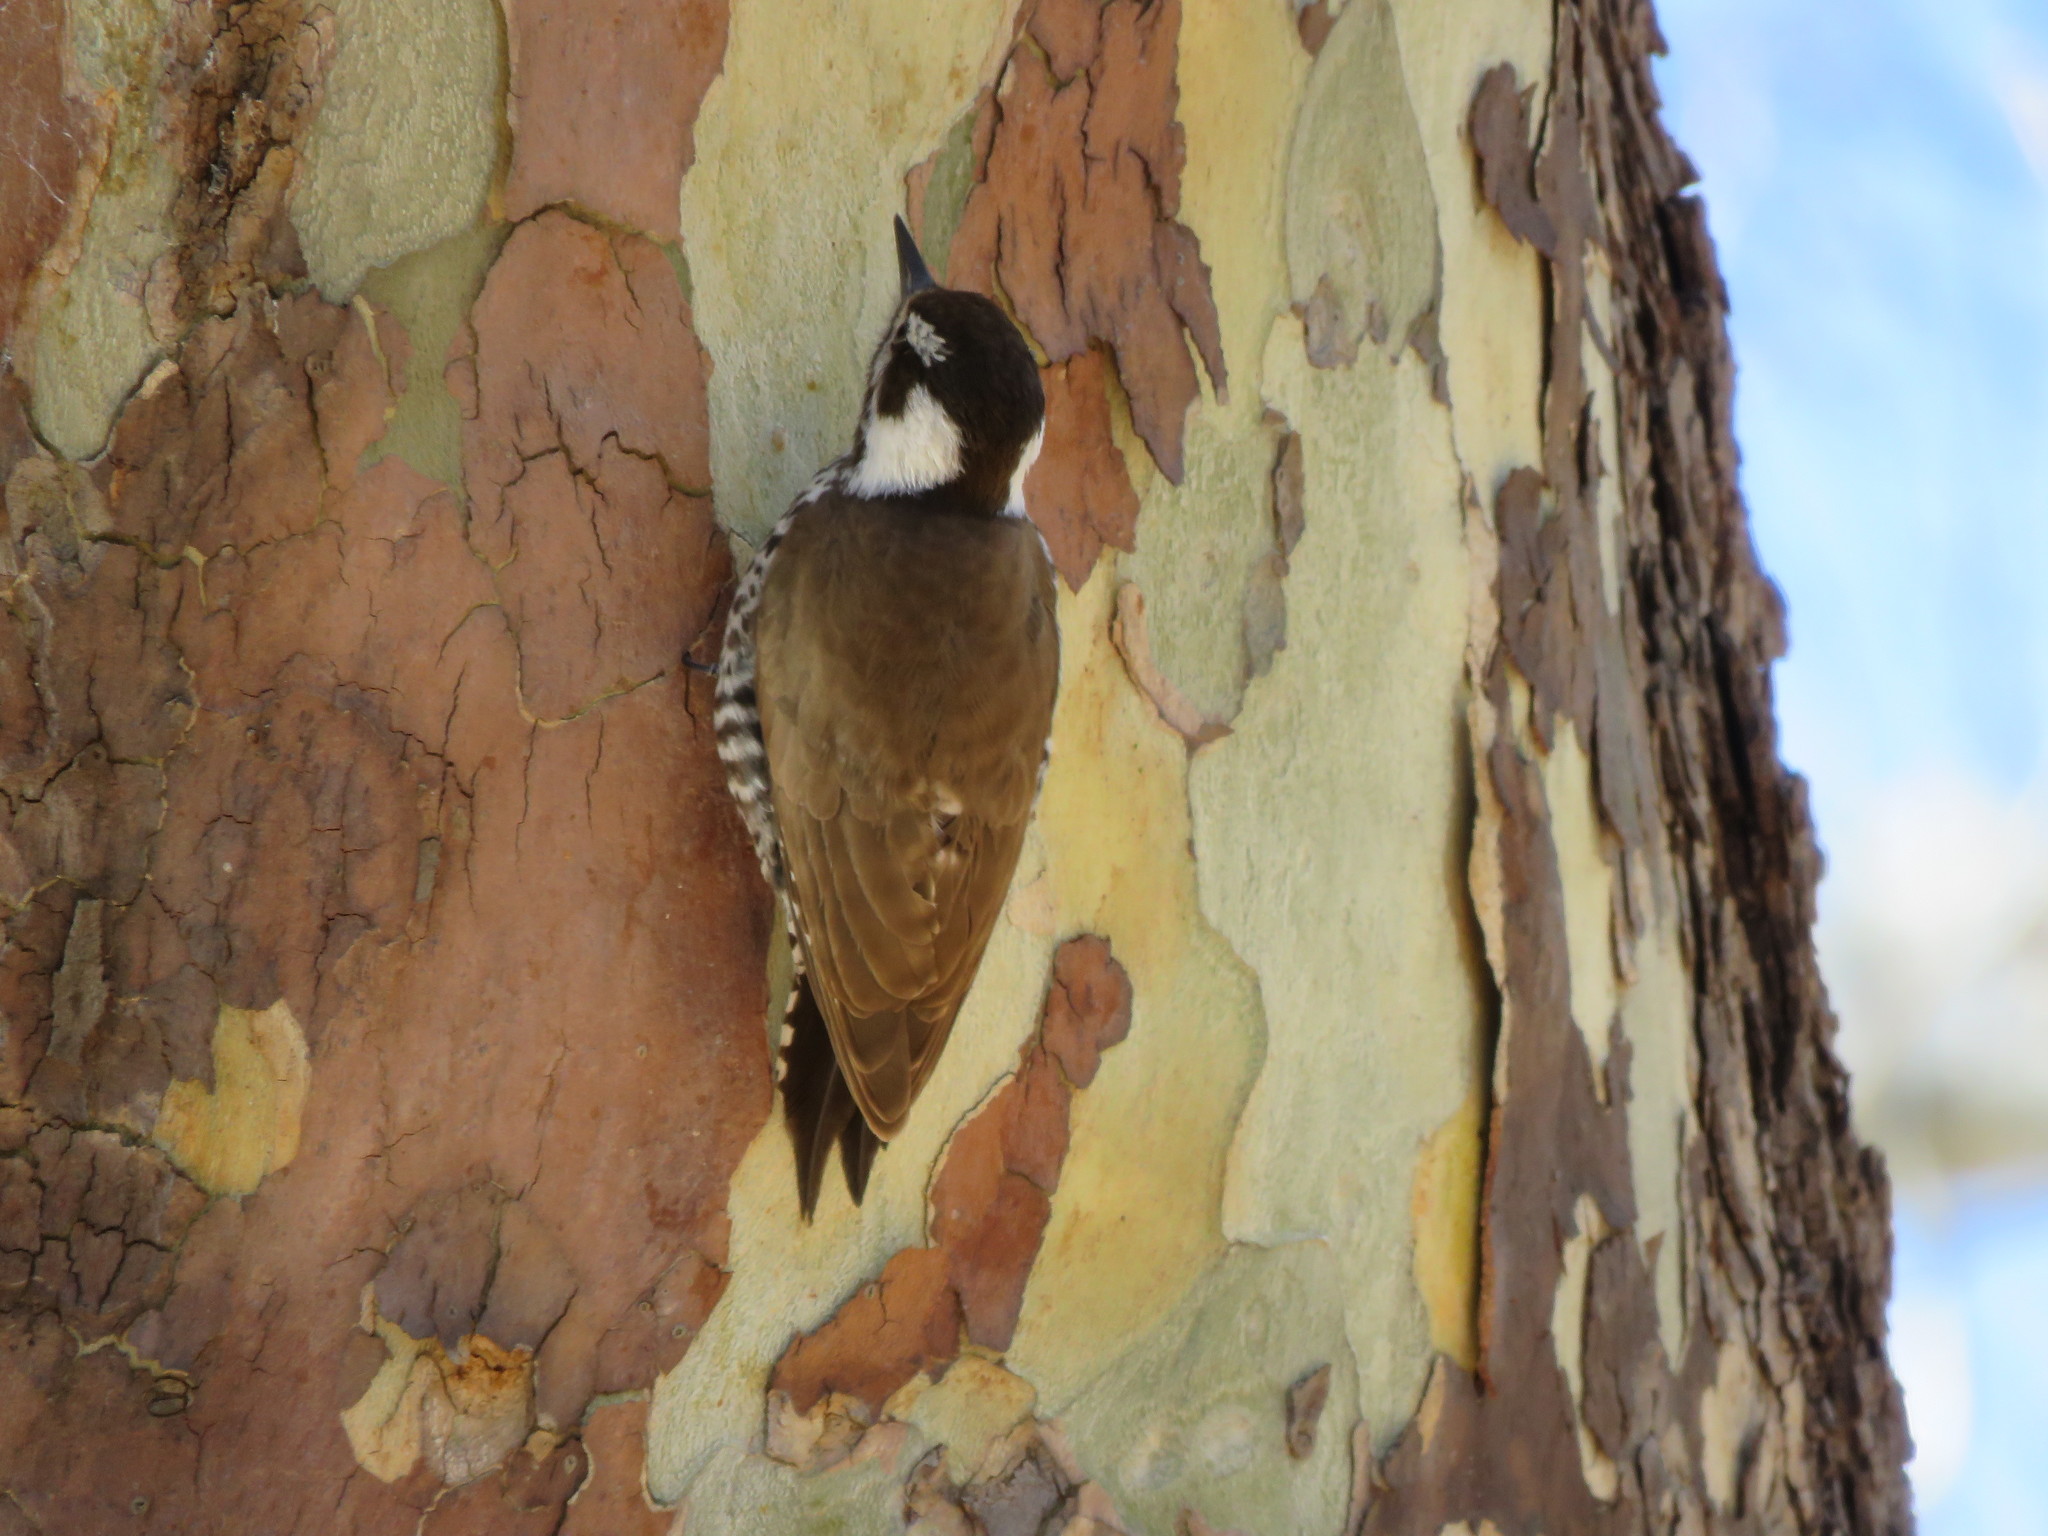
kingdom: Animalia
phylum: Chordata
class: Aves
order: Piciformes
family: Picidae
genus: Leuconotopicus
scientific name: Leuconotopicus arizonae
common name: Arizona woodpecker
